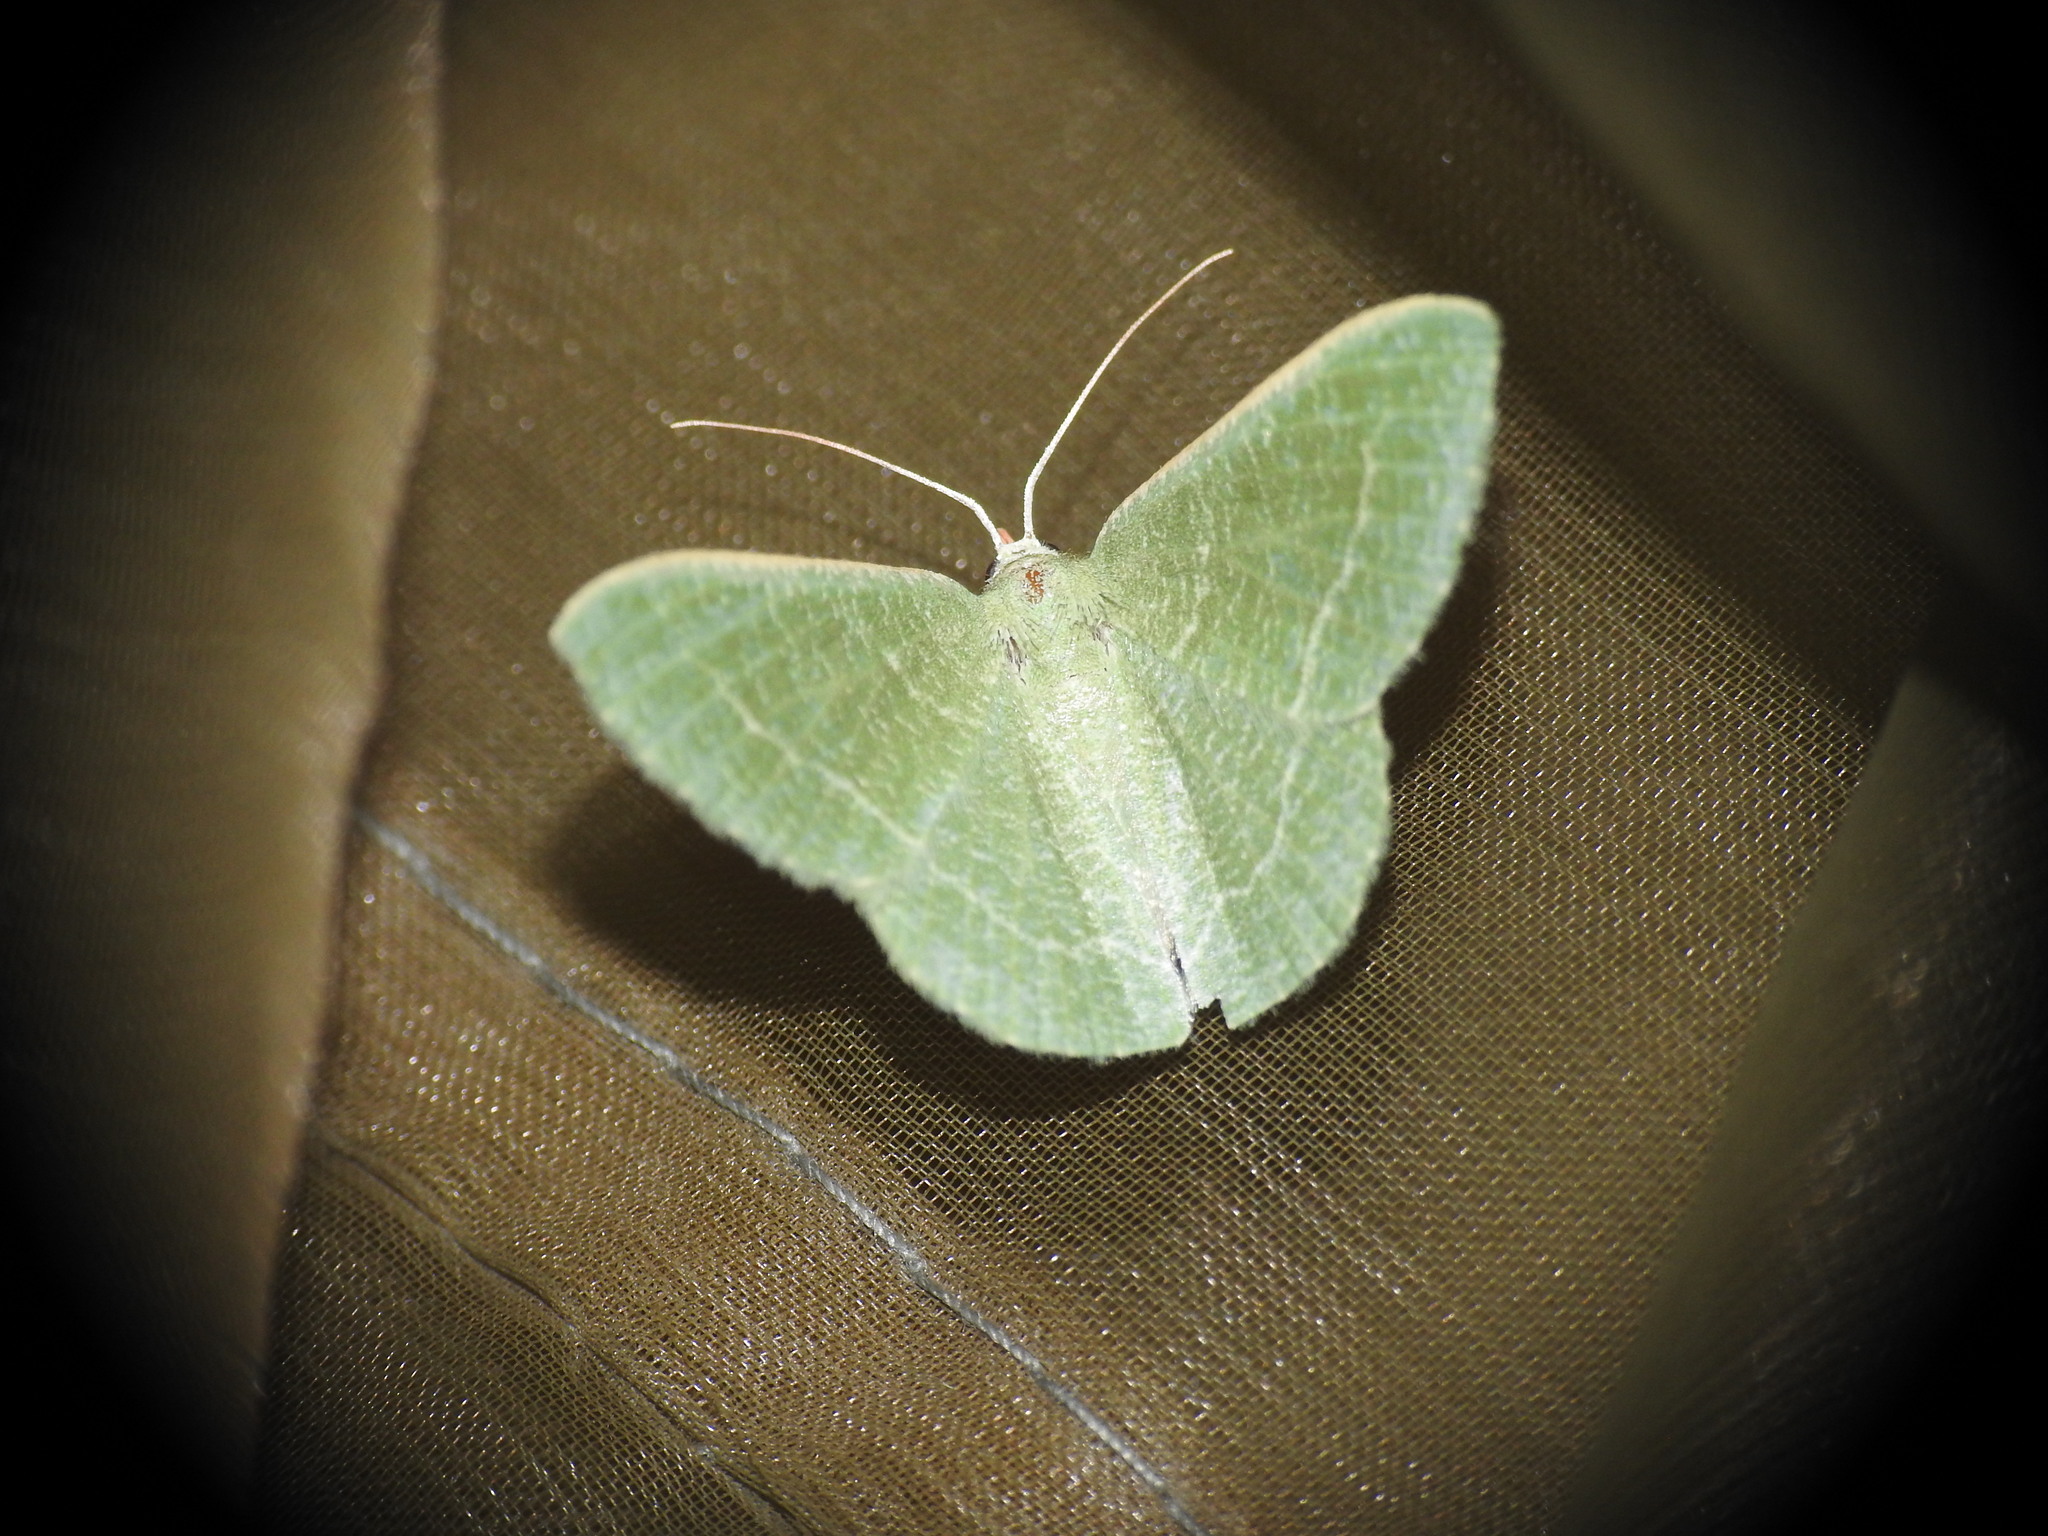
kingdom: Animalia
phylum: Arthropoda
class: Insecta
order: Lepidoptera
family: Geometridae
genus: Chlorissa
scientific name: Chlorissa etruscaria
